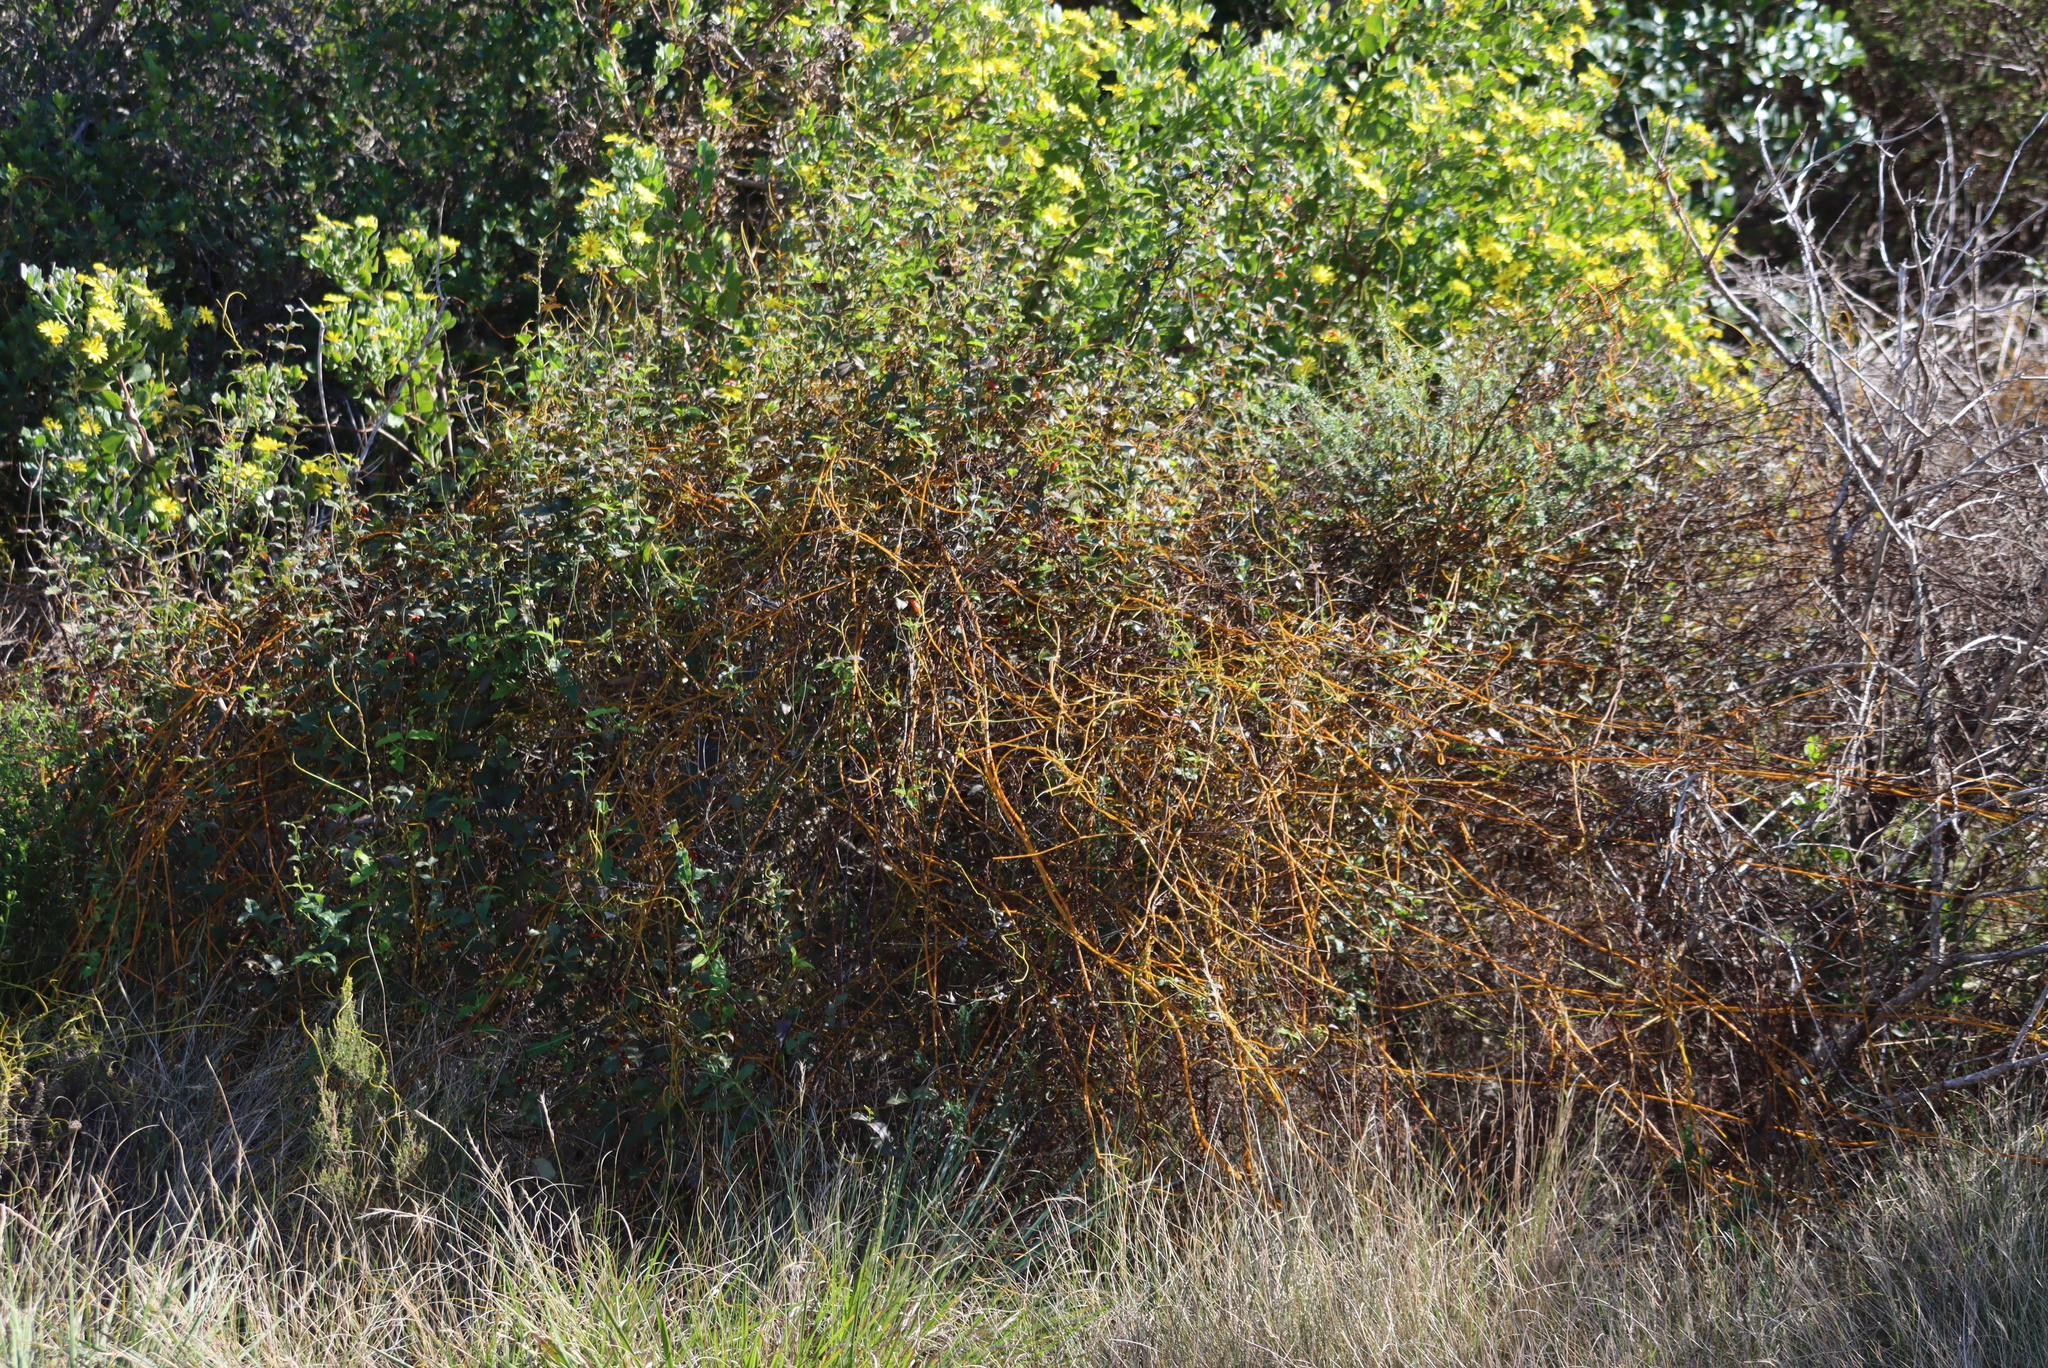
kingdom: Plantae
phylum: Tracheophyta
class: Magnoliopsida
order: Laurales
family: Lauraceae
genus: Cassytha
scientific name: Cassytha ciliolata
